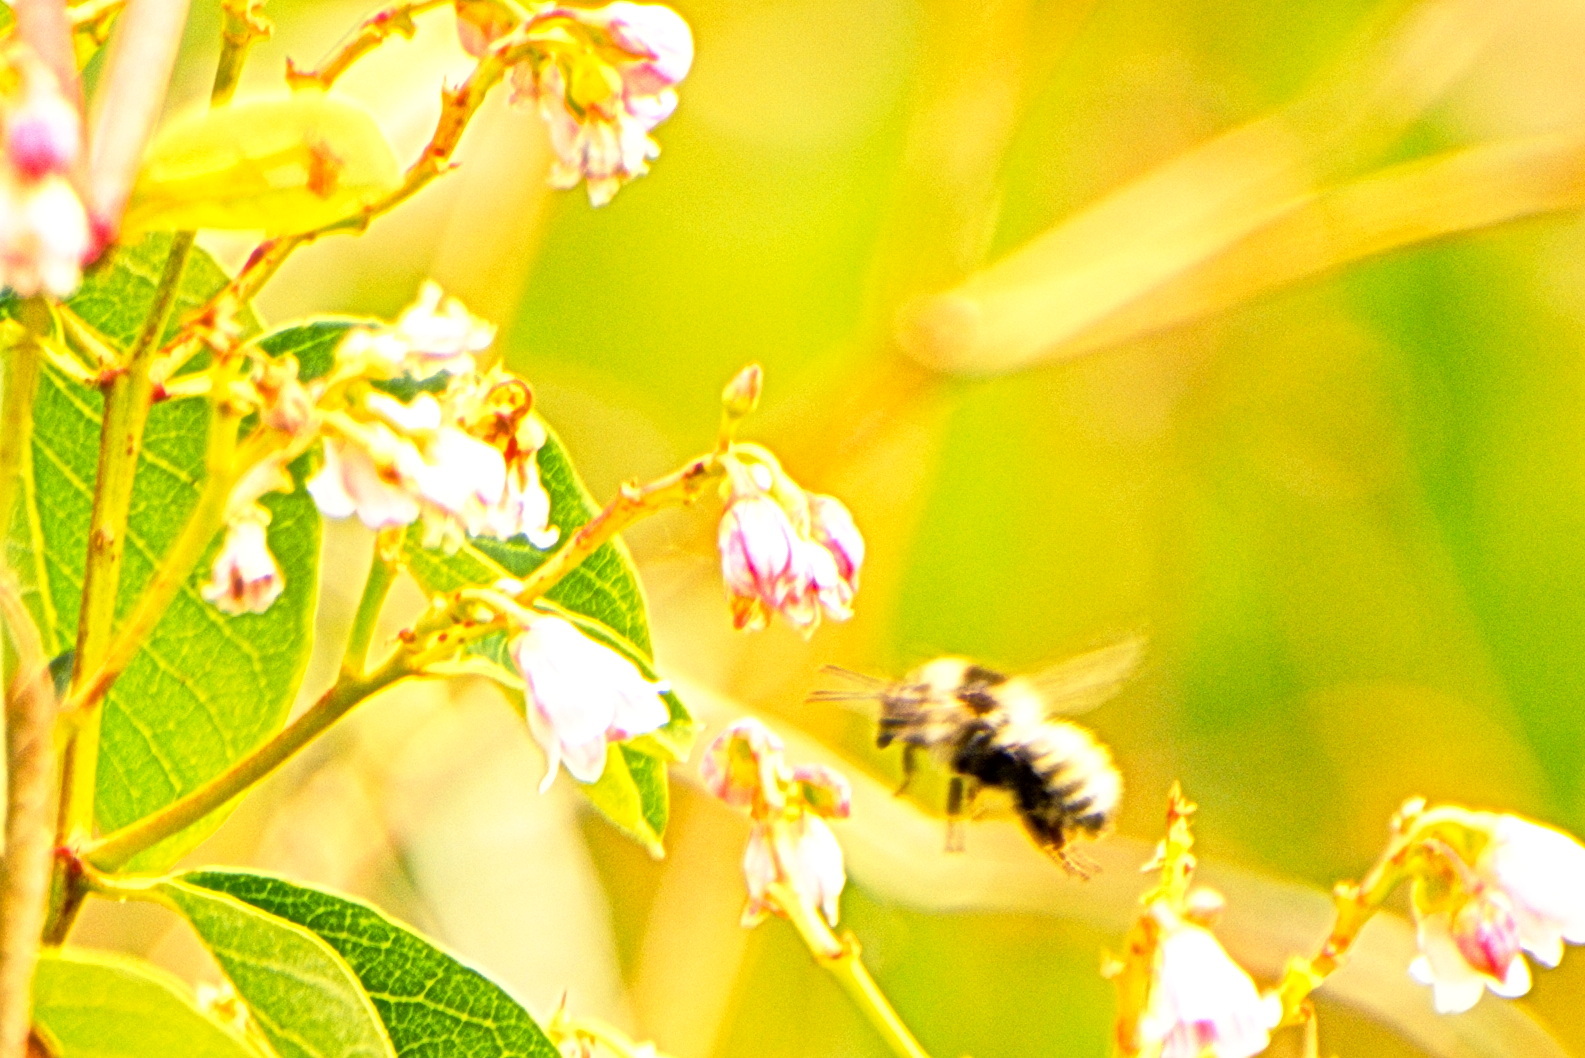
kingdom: Animalia
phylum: Arthropoda
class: Insecta
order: Hymenoptera
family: Apidae
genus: Bombus
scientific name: Bombus
